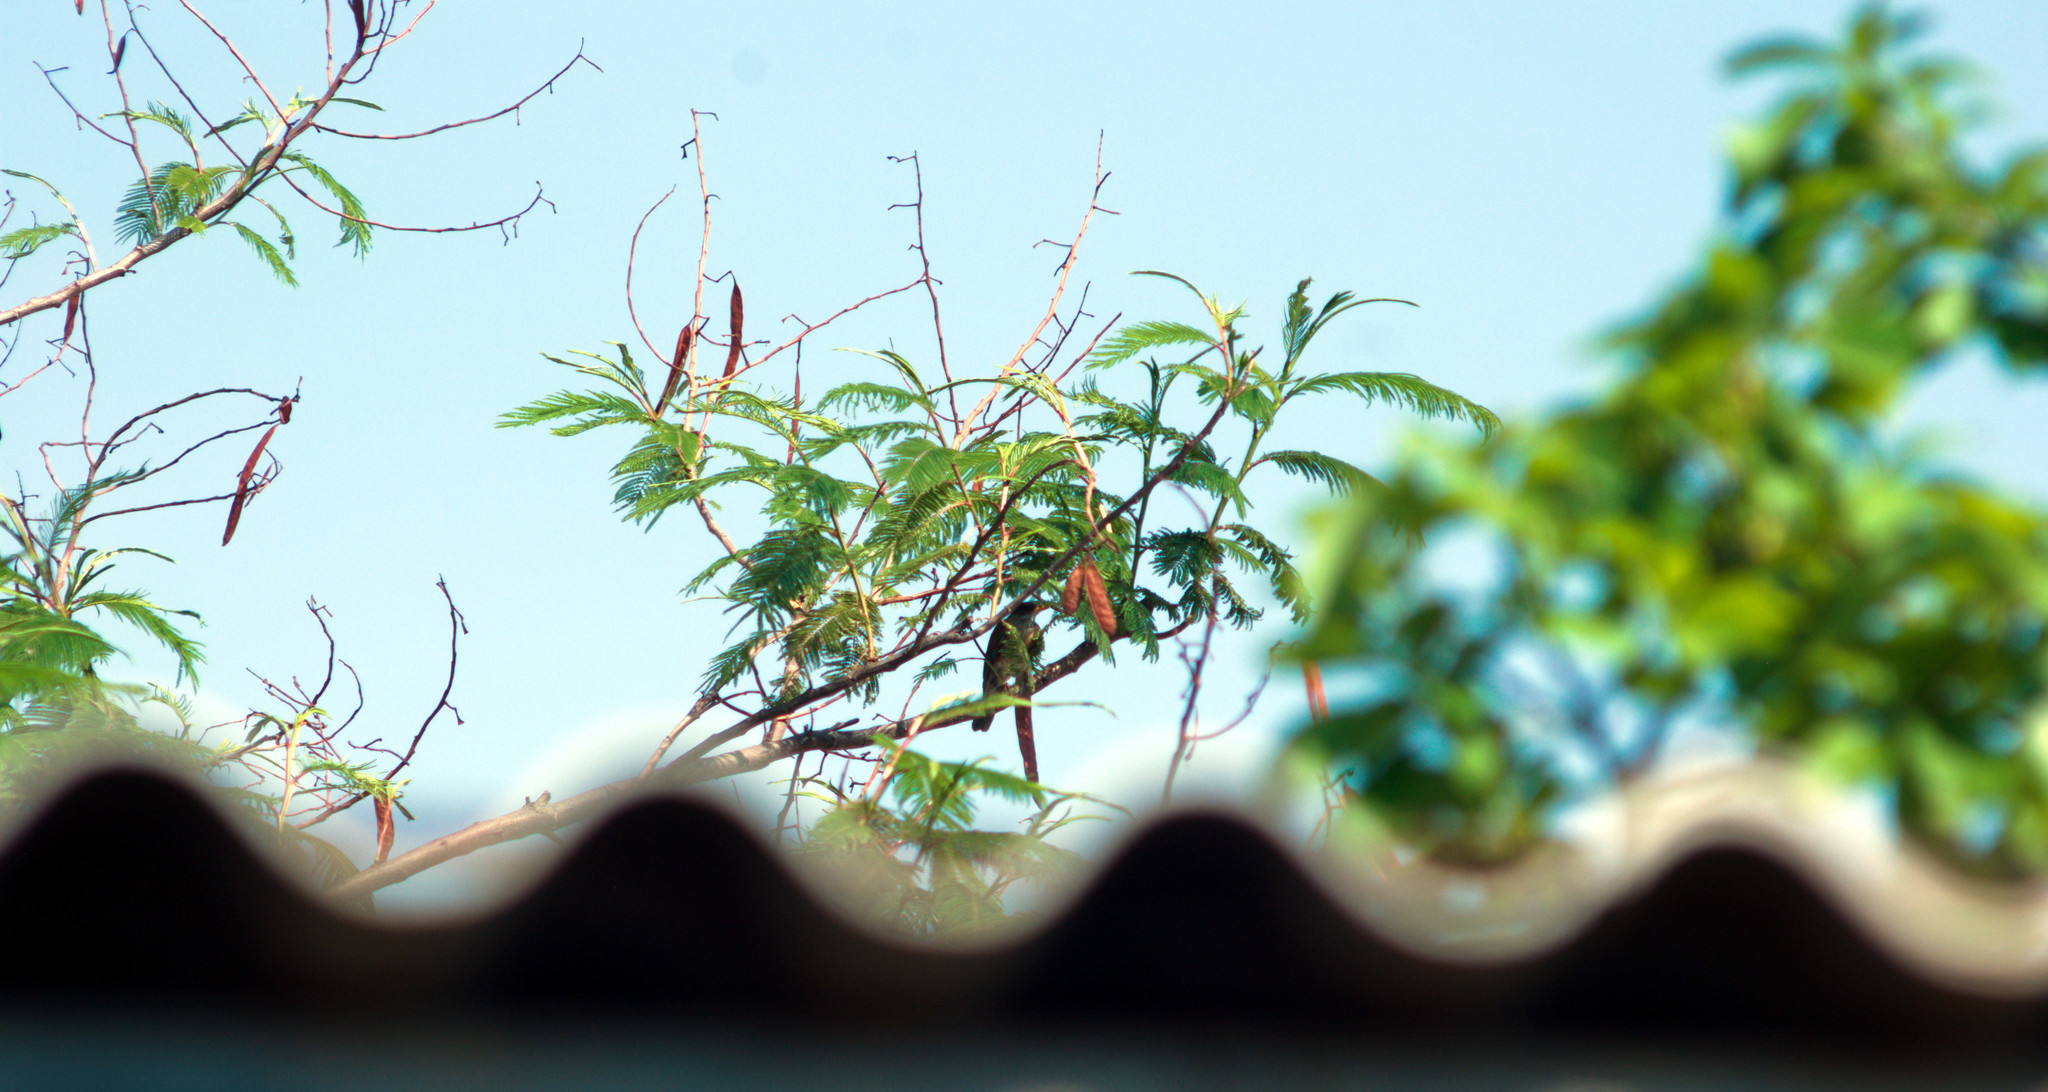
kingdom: Animalia
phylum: Chordata
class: Aves
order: Passeriformes
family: Turdidae
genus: Turdus
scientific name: Turdus rufopalliatus
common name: Rufous-backed robin
